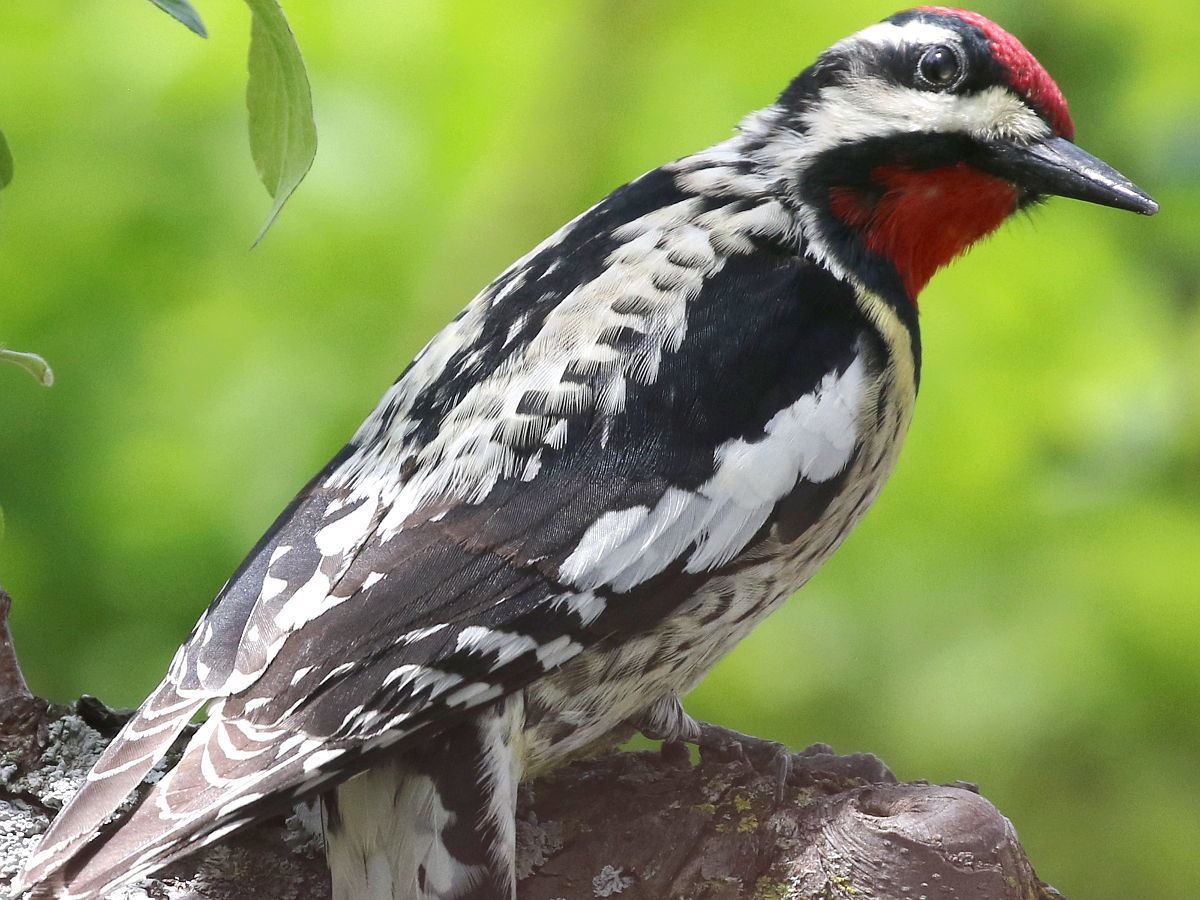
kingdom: Animalia
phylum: Chordata
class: Aves
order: Piciformes
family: Picidae
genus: Sphyrapicus
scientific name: Sphyrapicus varius
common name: Yellow-bellied sapsucker
